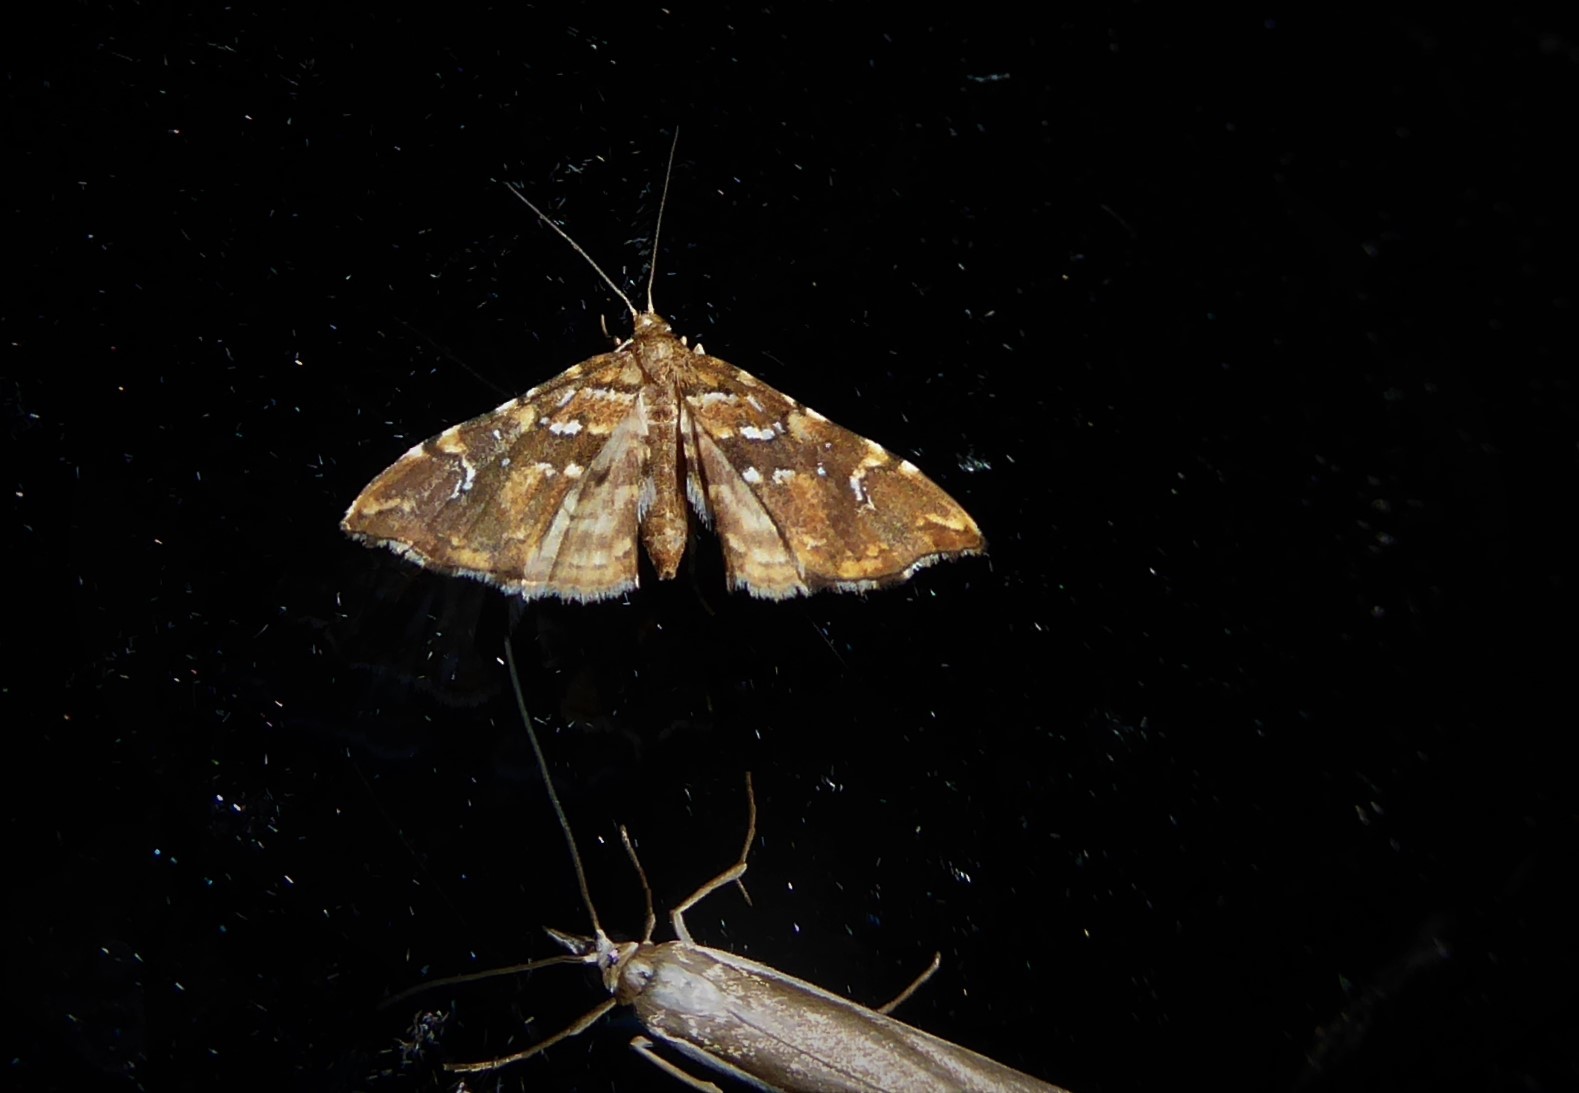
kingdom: Animalia
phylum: Arthropoda
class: Insecta
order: Lepidoptera
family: Pyralidae
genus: Musotima
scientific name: Musotima nitidalis
